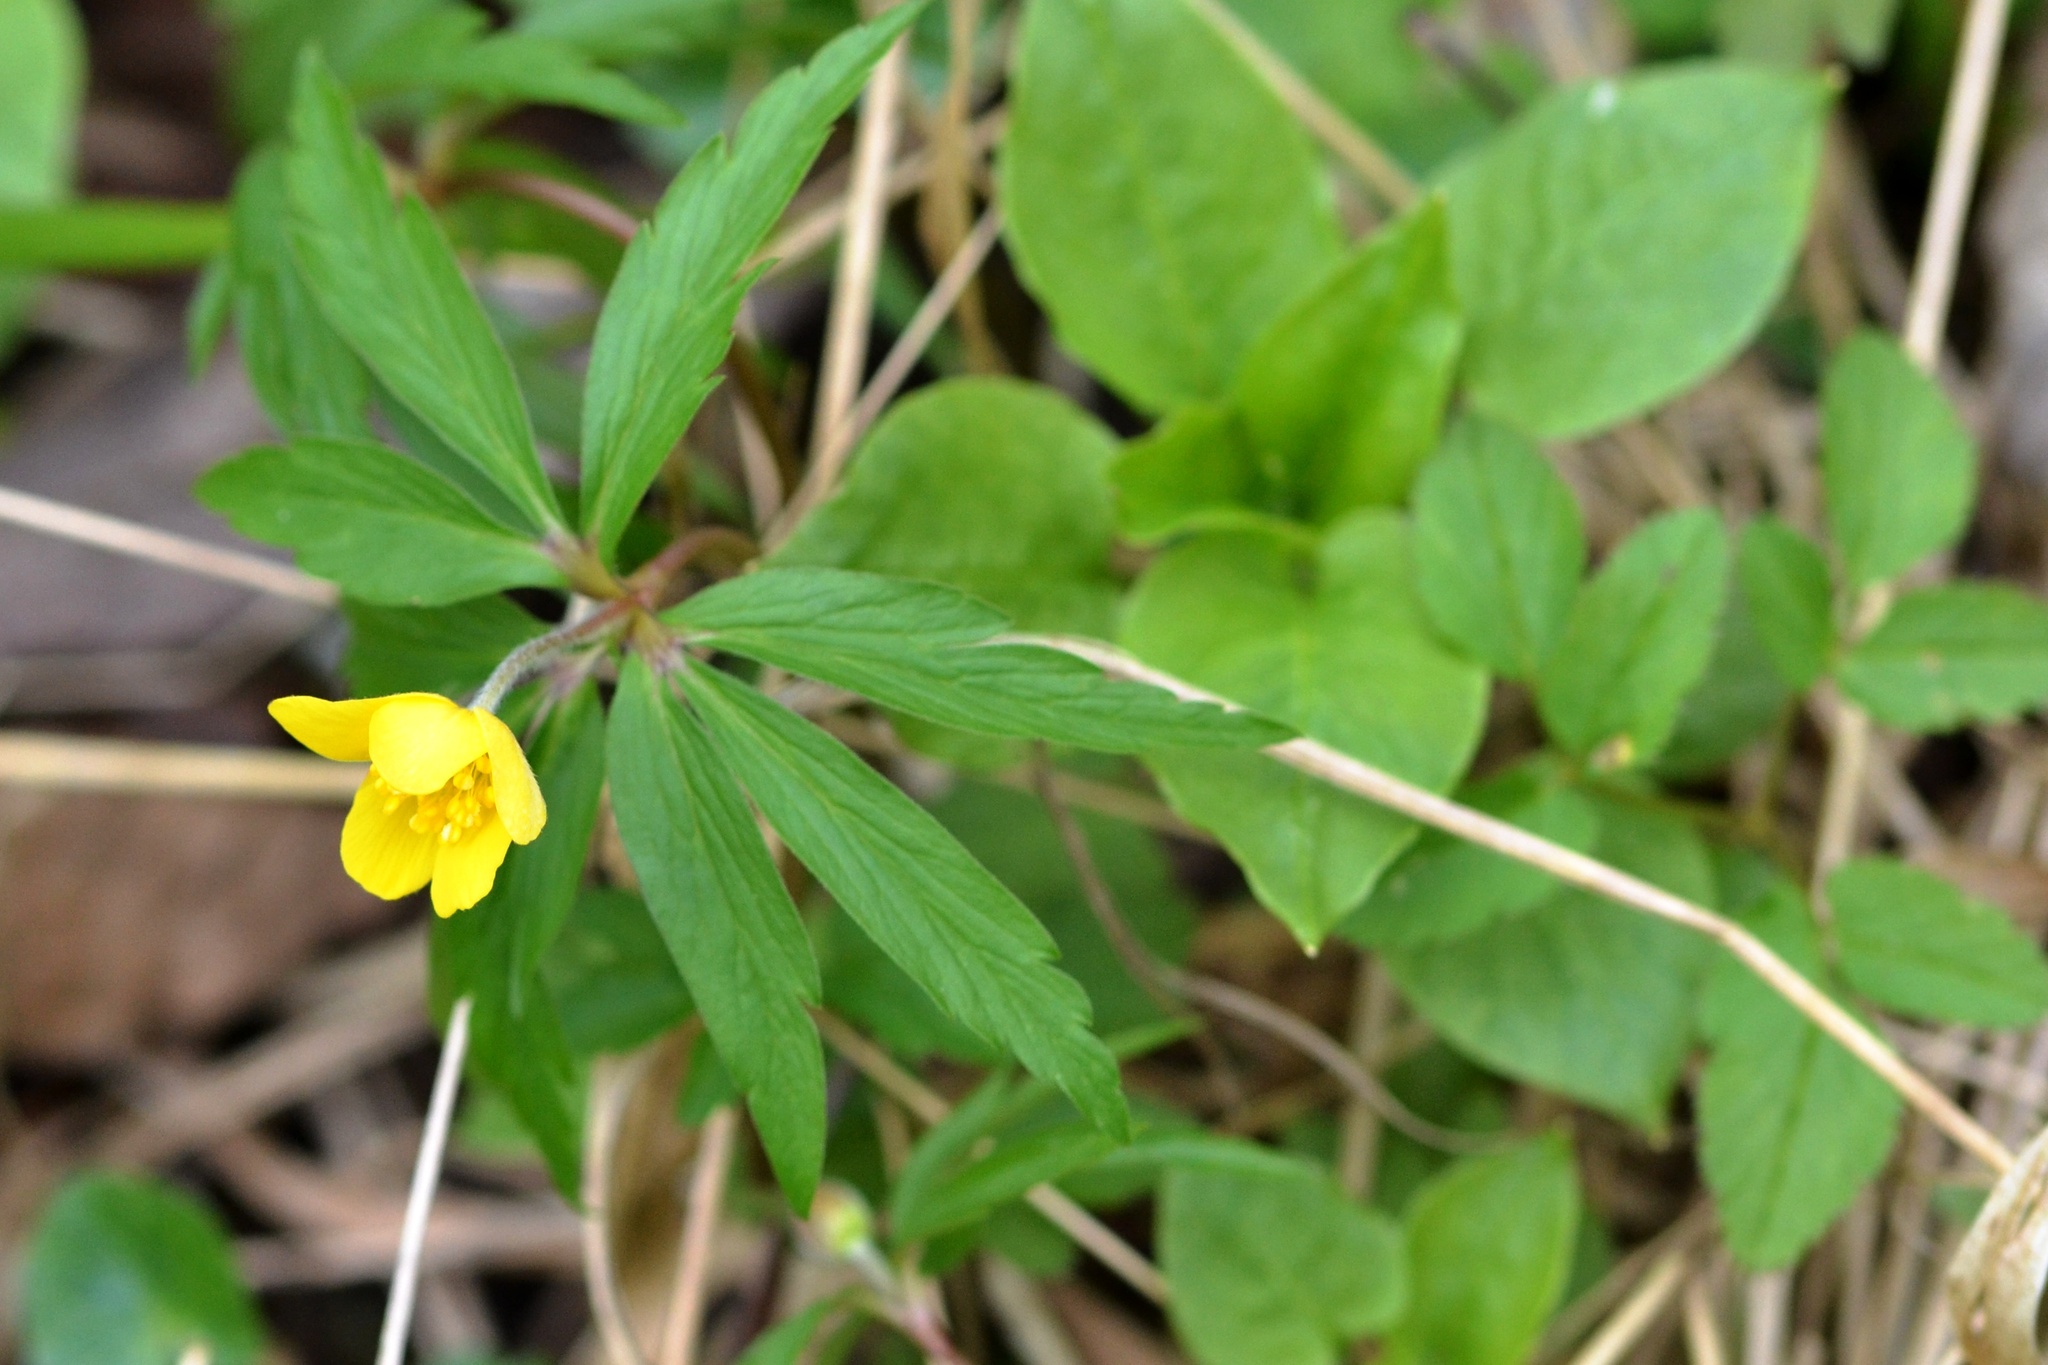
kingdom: Plantae
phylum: Tracheophyta
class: Magnoliopsida
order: Ranunculales
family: Ranunculaceae
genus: Anemone
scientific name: Anemone ranunculoides
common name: Yellow anemone
